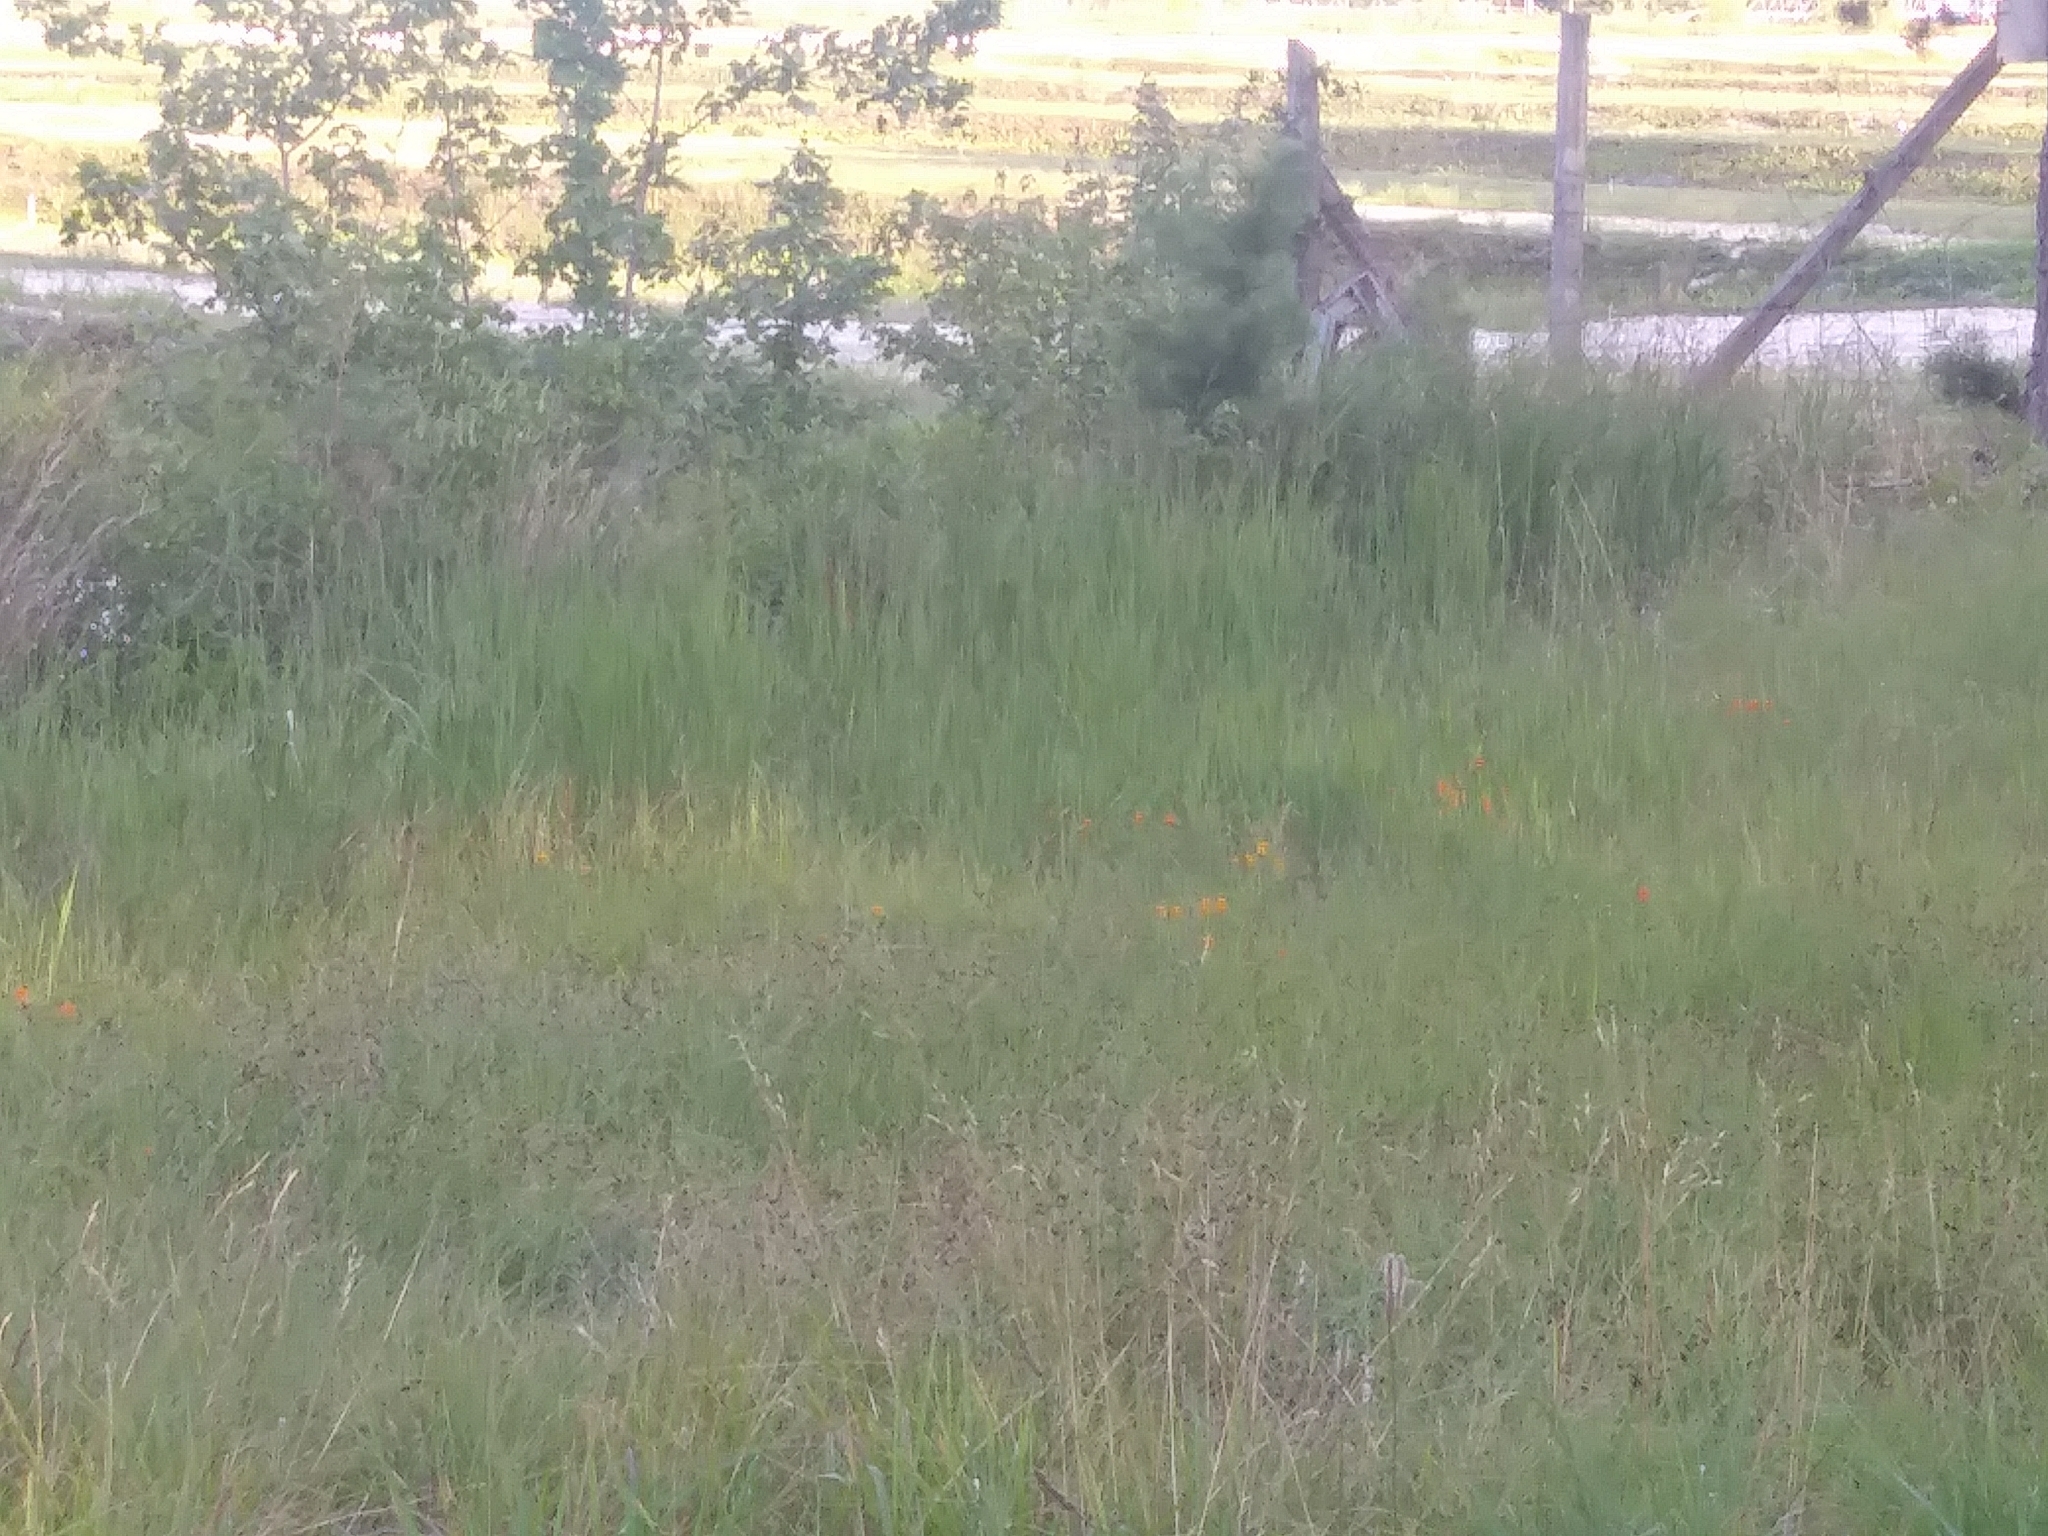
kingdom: Plantae
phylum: Tracheophyta
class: Magnoliopsida
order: Fabales
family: Polygalaceae
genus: Polygala
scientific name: Polygala lutea
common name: Orange milkwort
